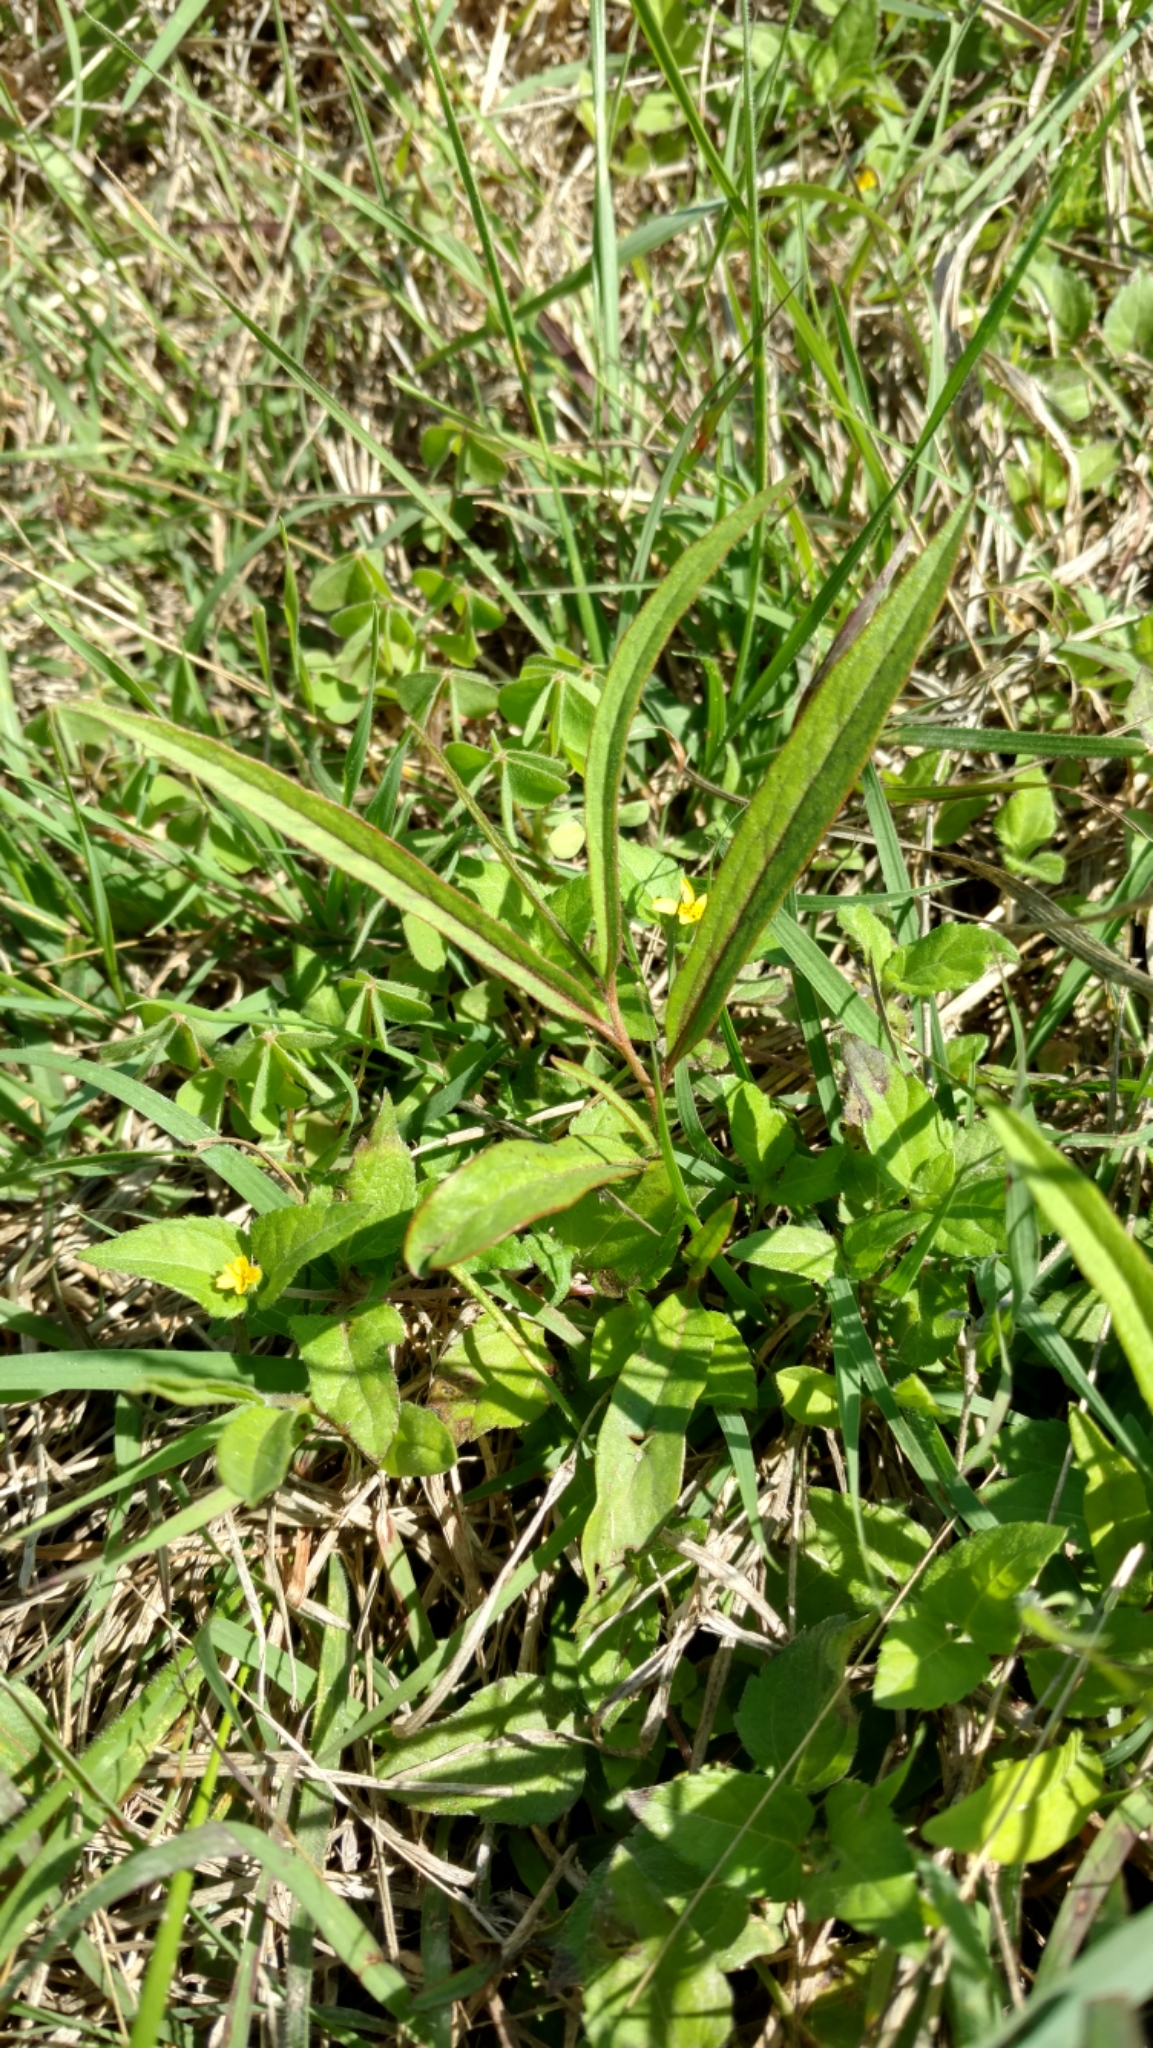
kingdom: Plantae
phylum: Tracheophyta
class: Magnoliopsida
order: Piperales
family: Aristolochiaceae
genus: Aristolochia
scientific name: Aristolochia erecta
